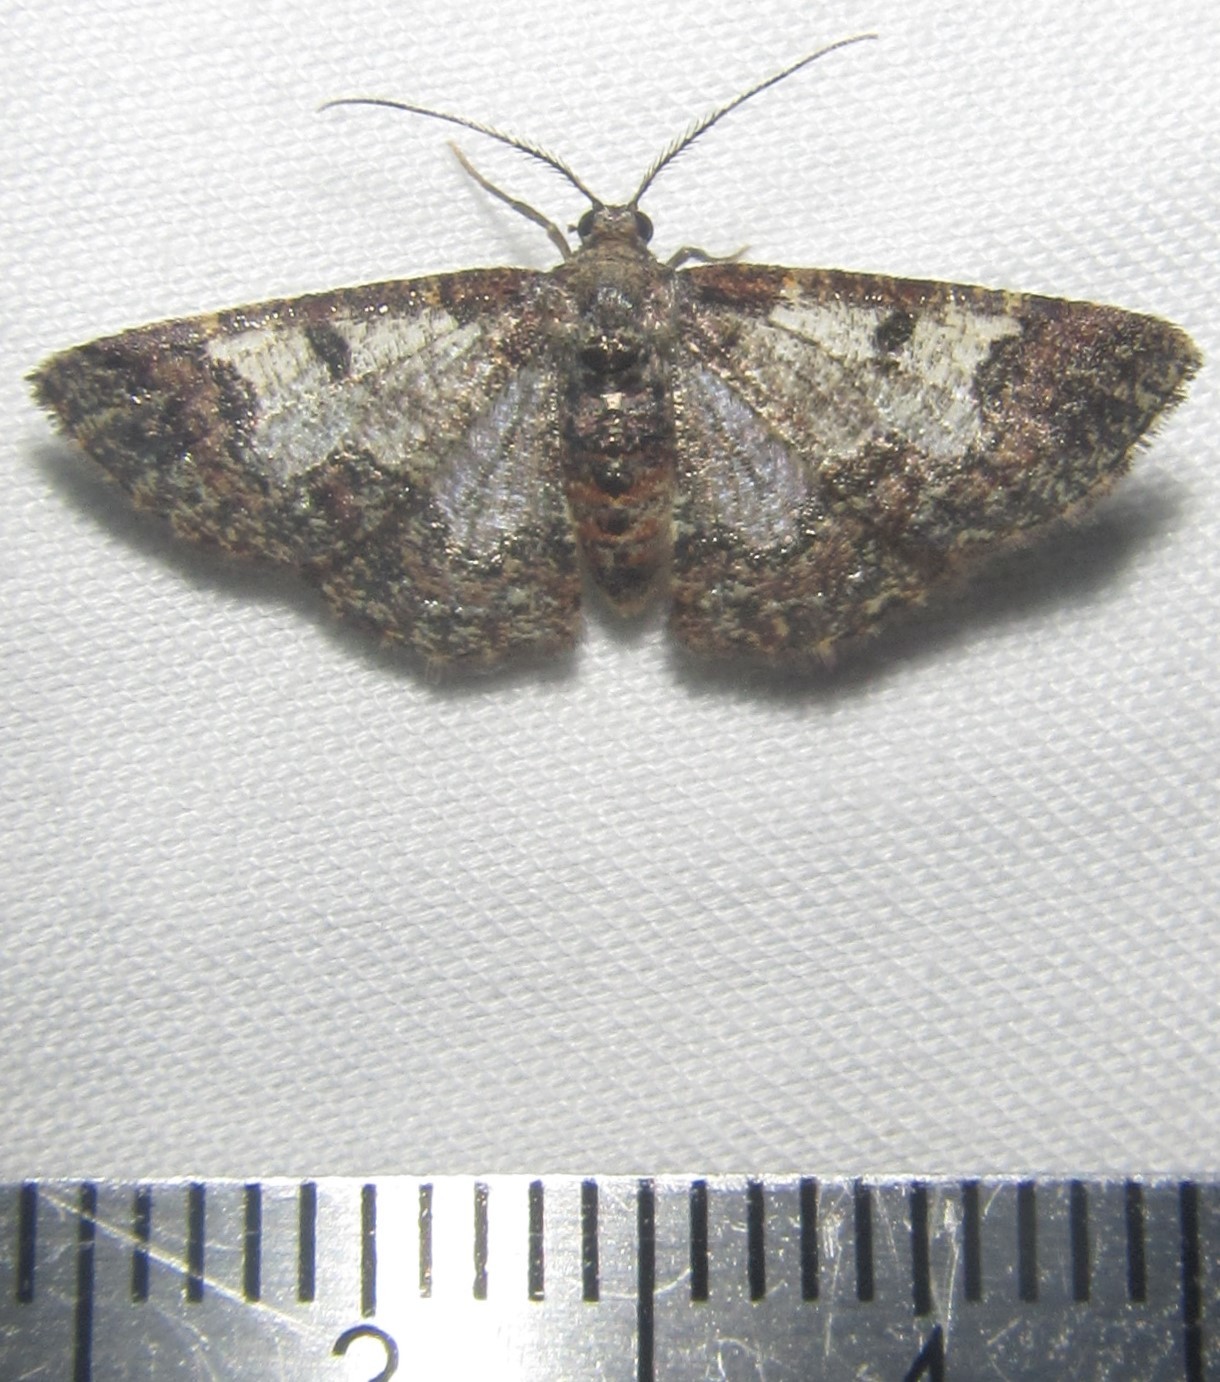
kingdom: Animalia
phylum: Arthropoda
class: Insecta
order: Lepidoptera
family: Geometridae
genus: Zamarada
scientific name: Zamarada metallicata
